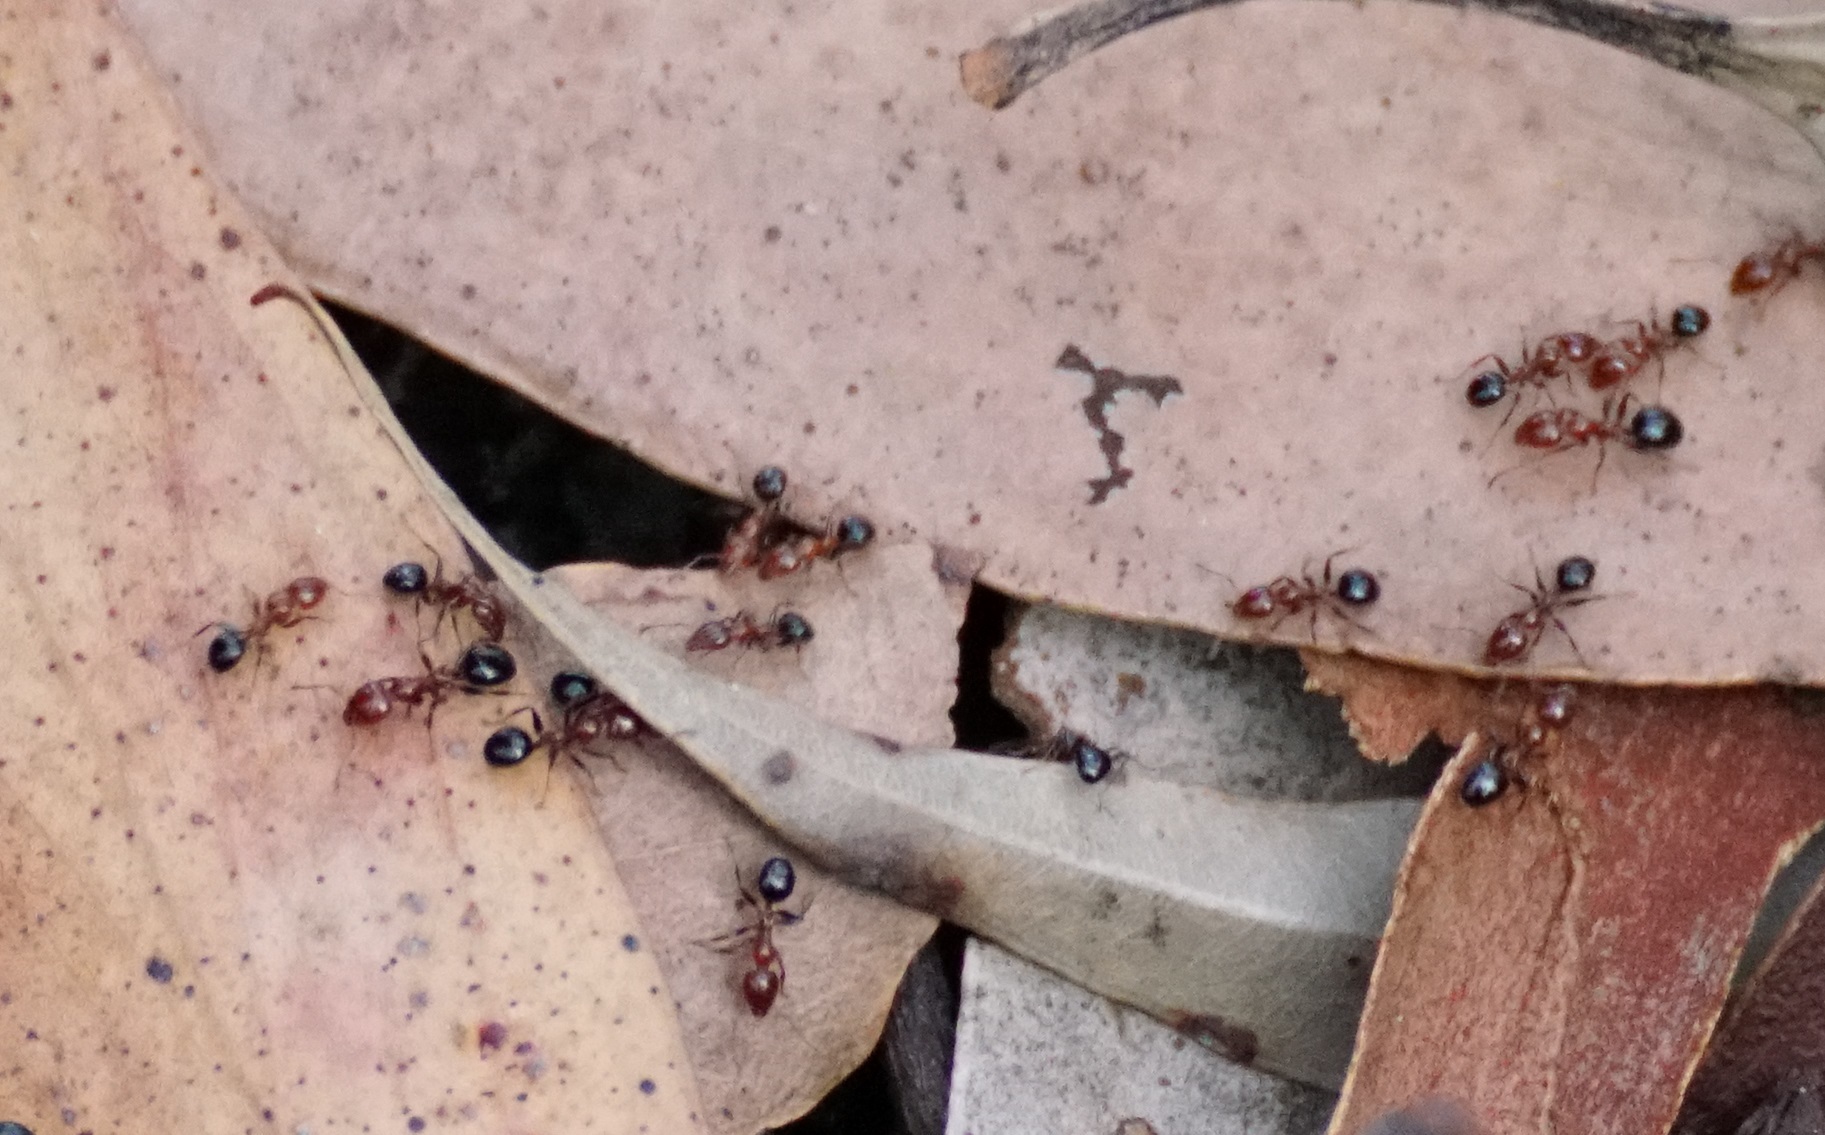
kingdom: Animalia
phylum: Arthropoda
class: Insecta
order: Hymenoptera
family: Formicidae
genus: Froggattella
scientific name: Froggattella kirbii
